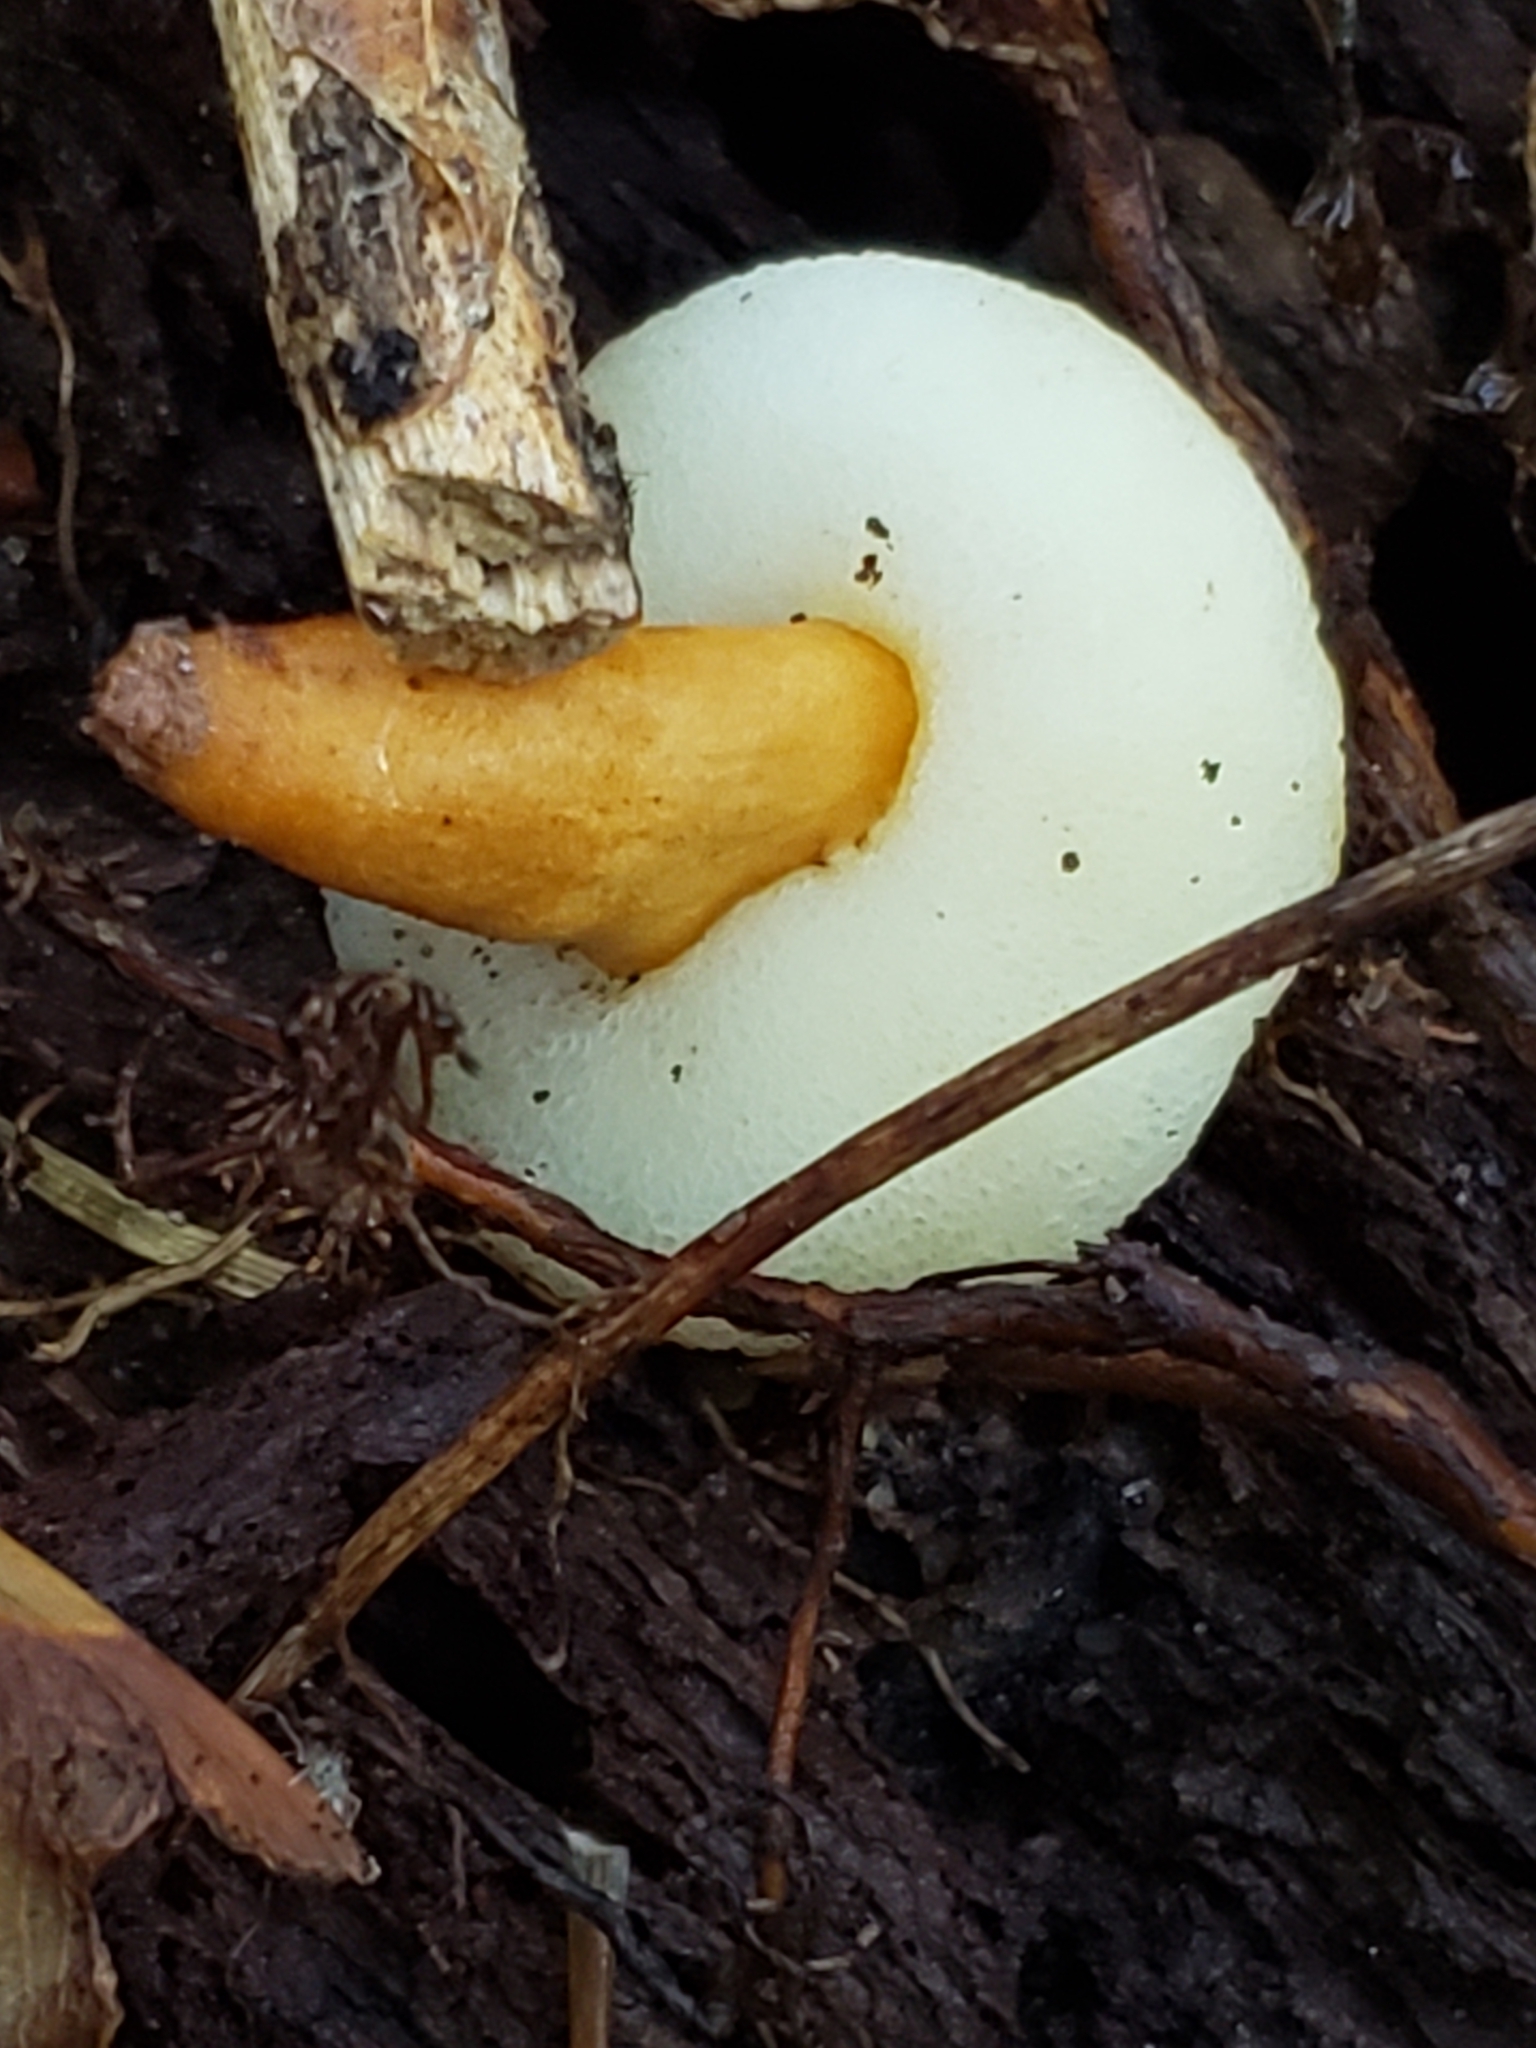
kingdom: Fungi
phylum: Basidiomycota
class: Agaricomycetes
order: Boletales
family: Gyroporaceae
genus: Gyroporus
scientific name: Gyroporus castaneus
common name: Chestnut bolete
